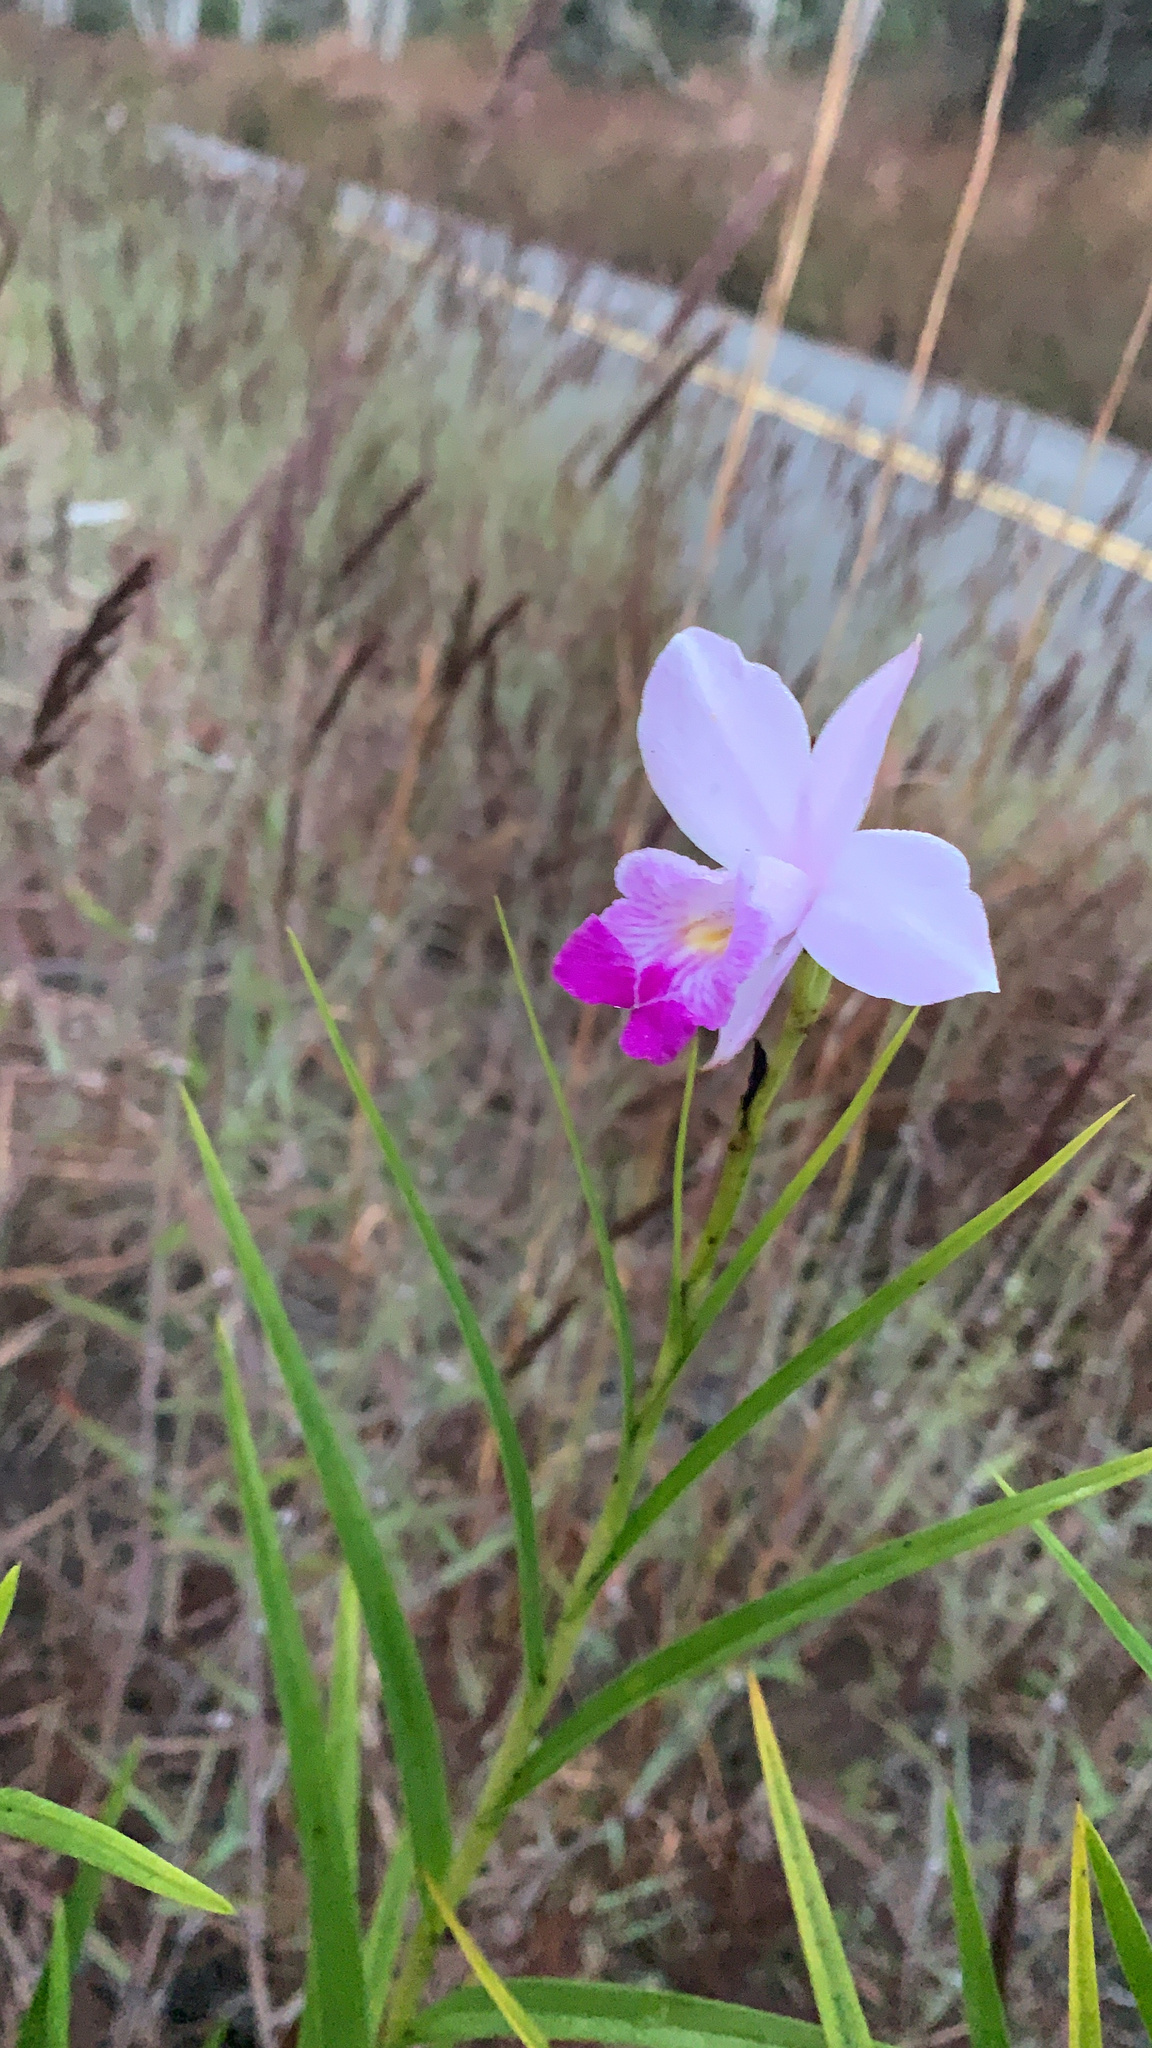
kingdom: Plantae
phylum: Tracheophyta
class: Liliopsida
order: Asparagales
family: Orchidaceae
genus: Arundina
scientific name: Arundina graminifolia
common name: Bamboo orchid
